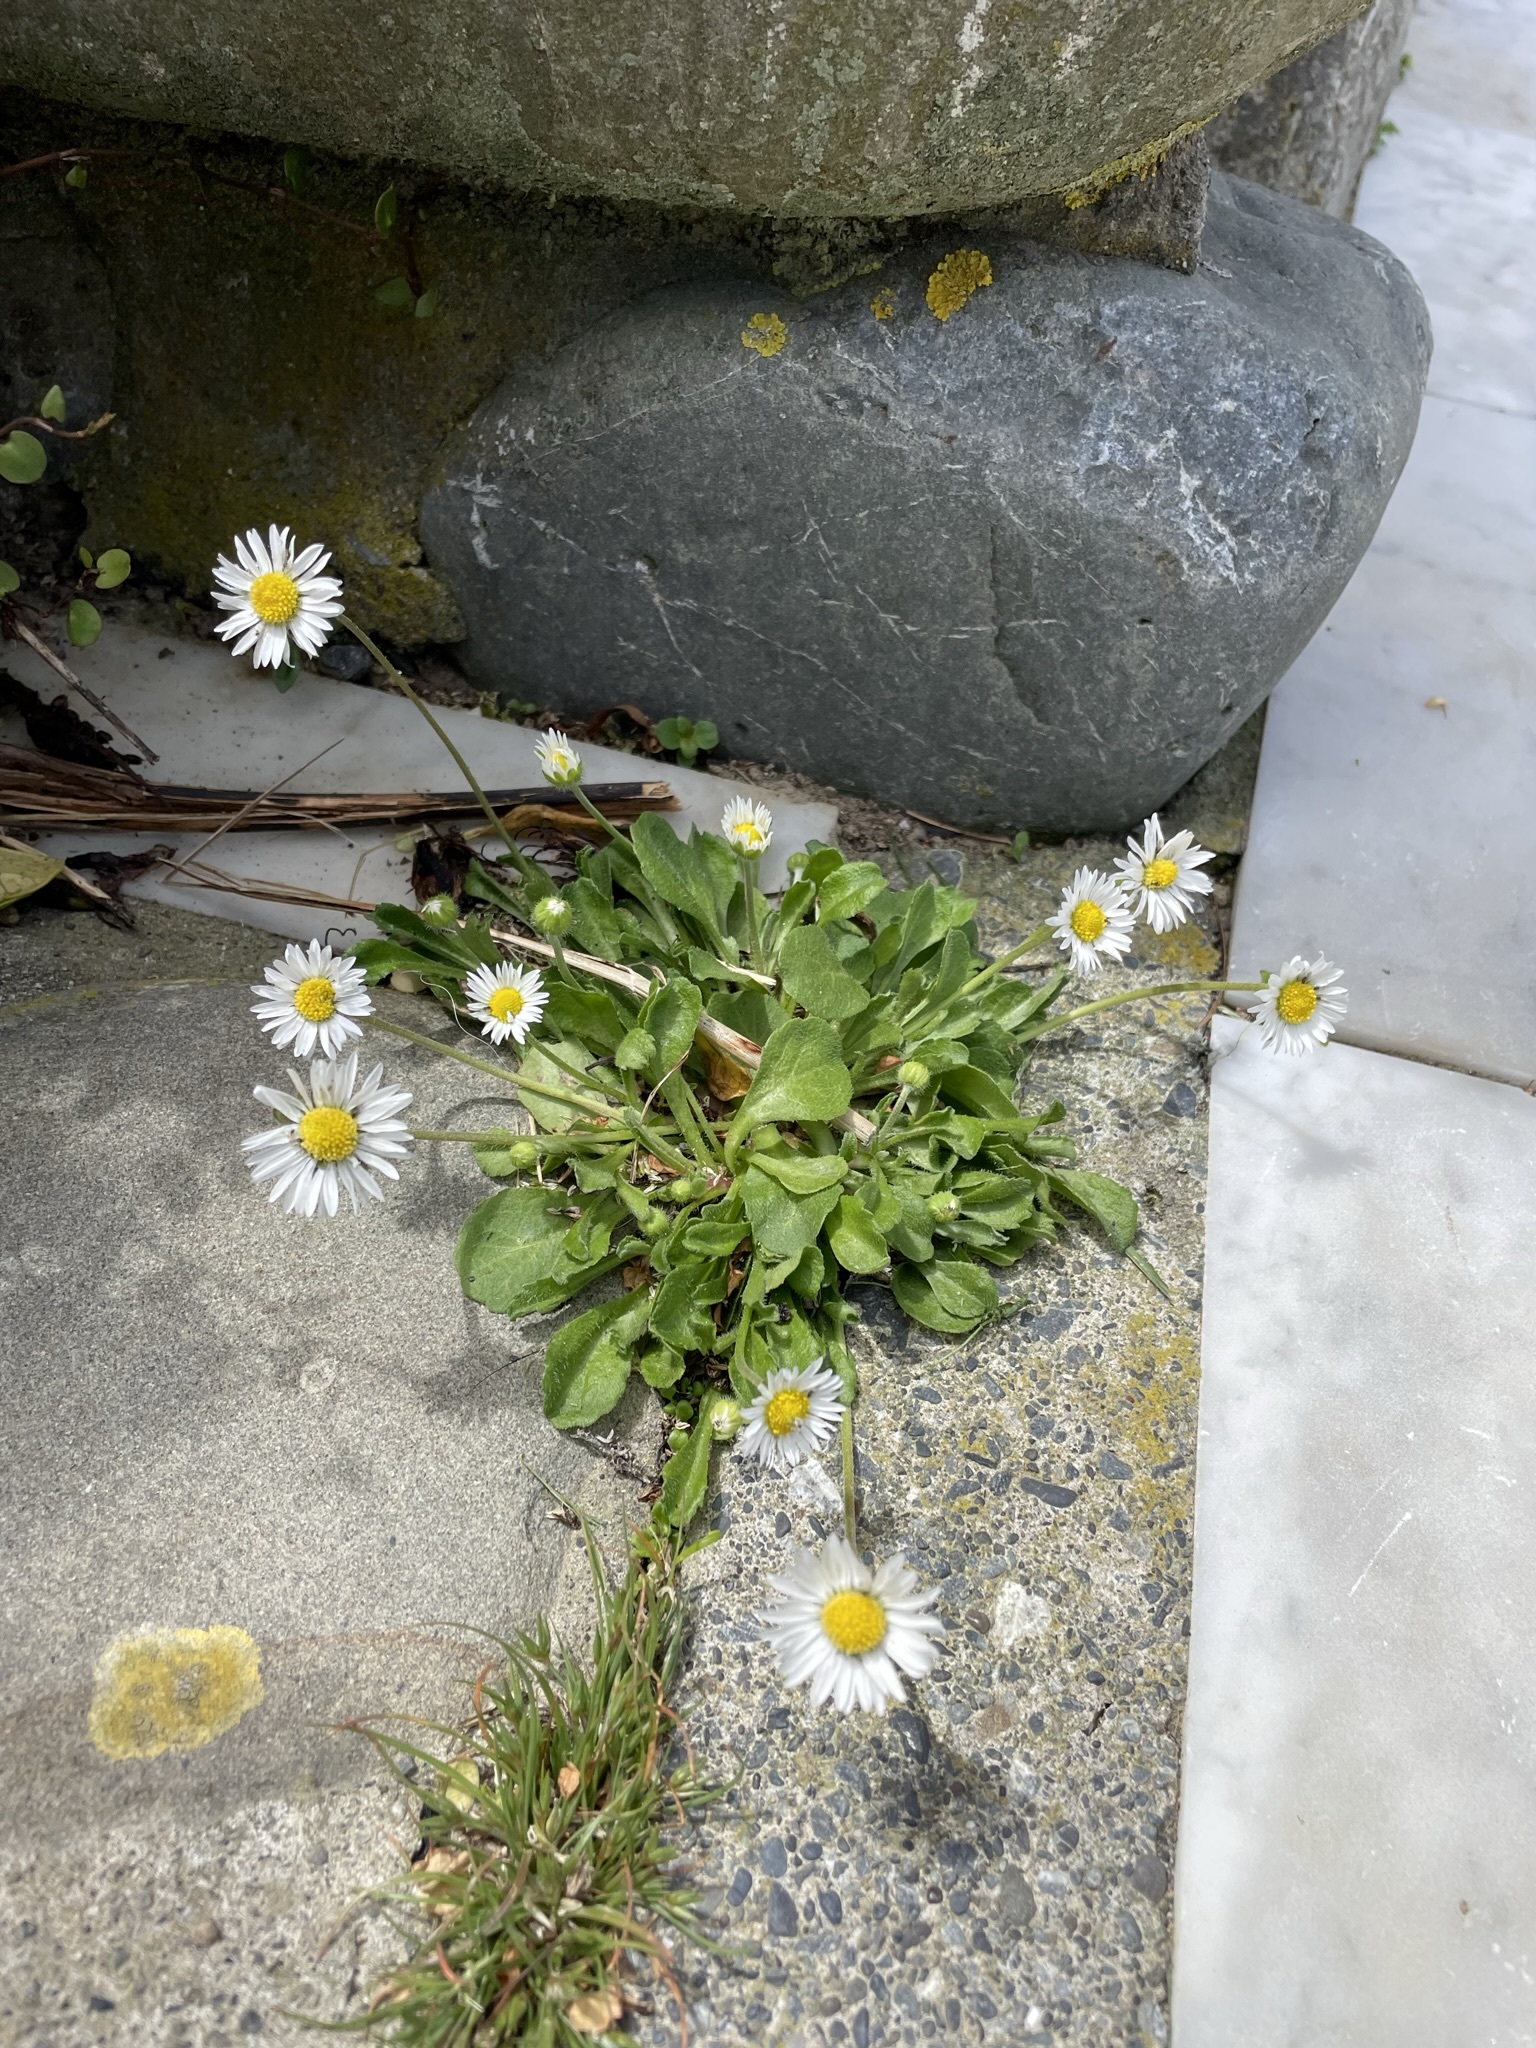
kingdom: Plantae
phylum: Tracheophyta
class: Magnoliopsida
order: Asterales
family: Asteraceae
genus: Bellis
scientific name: Bellis perennis
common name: Lawndaisy
